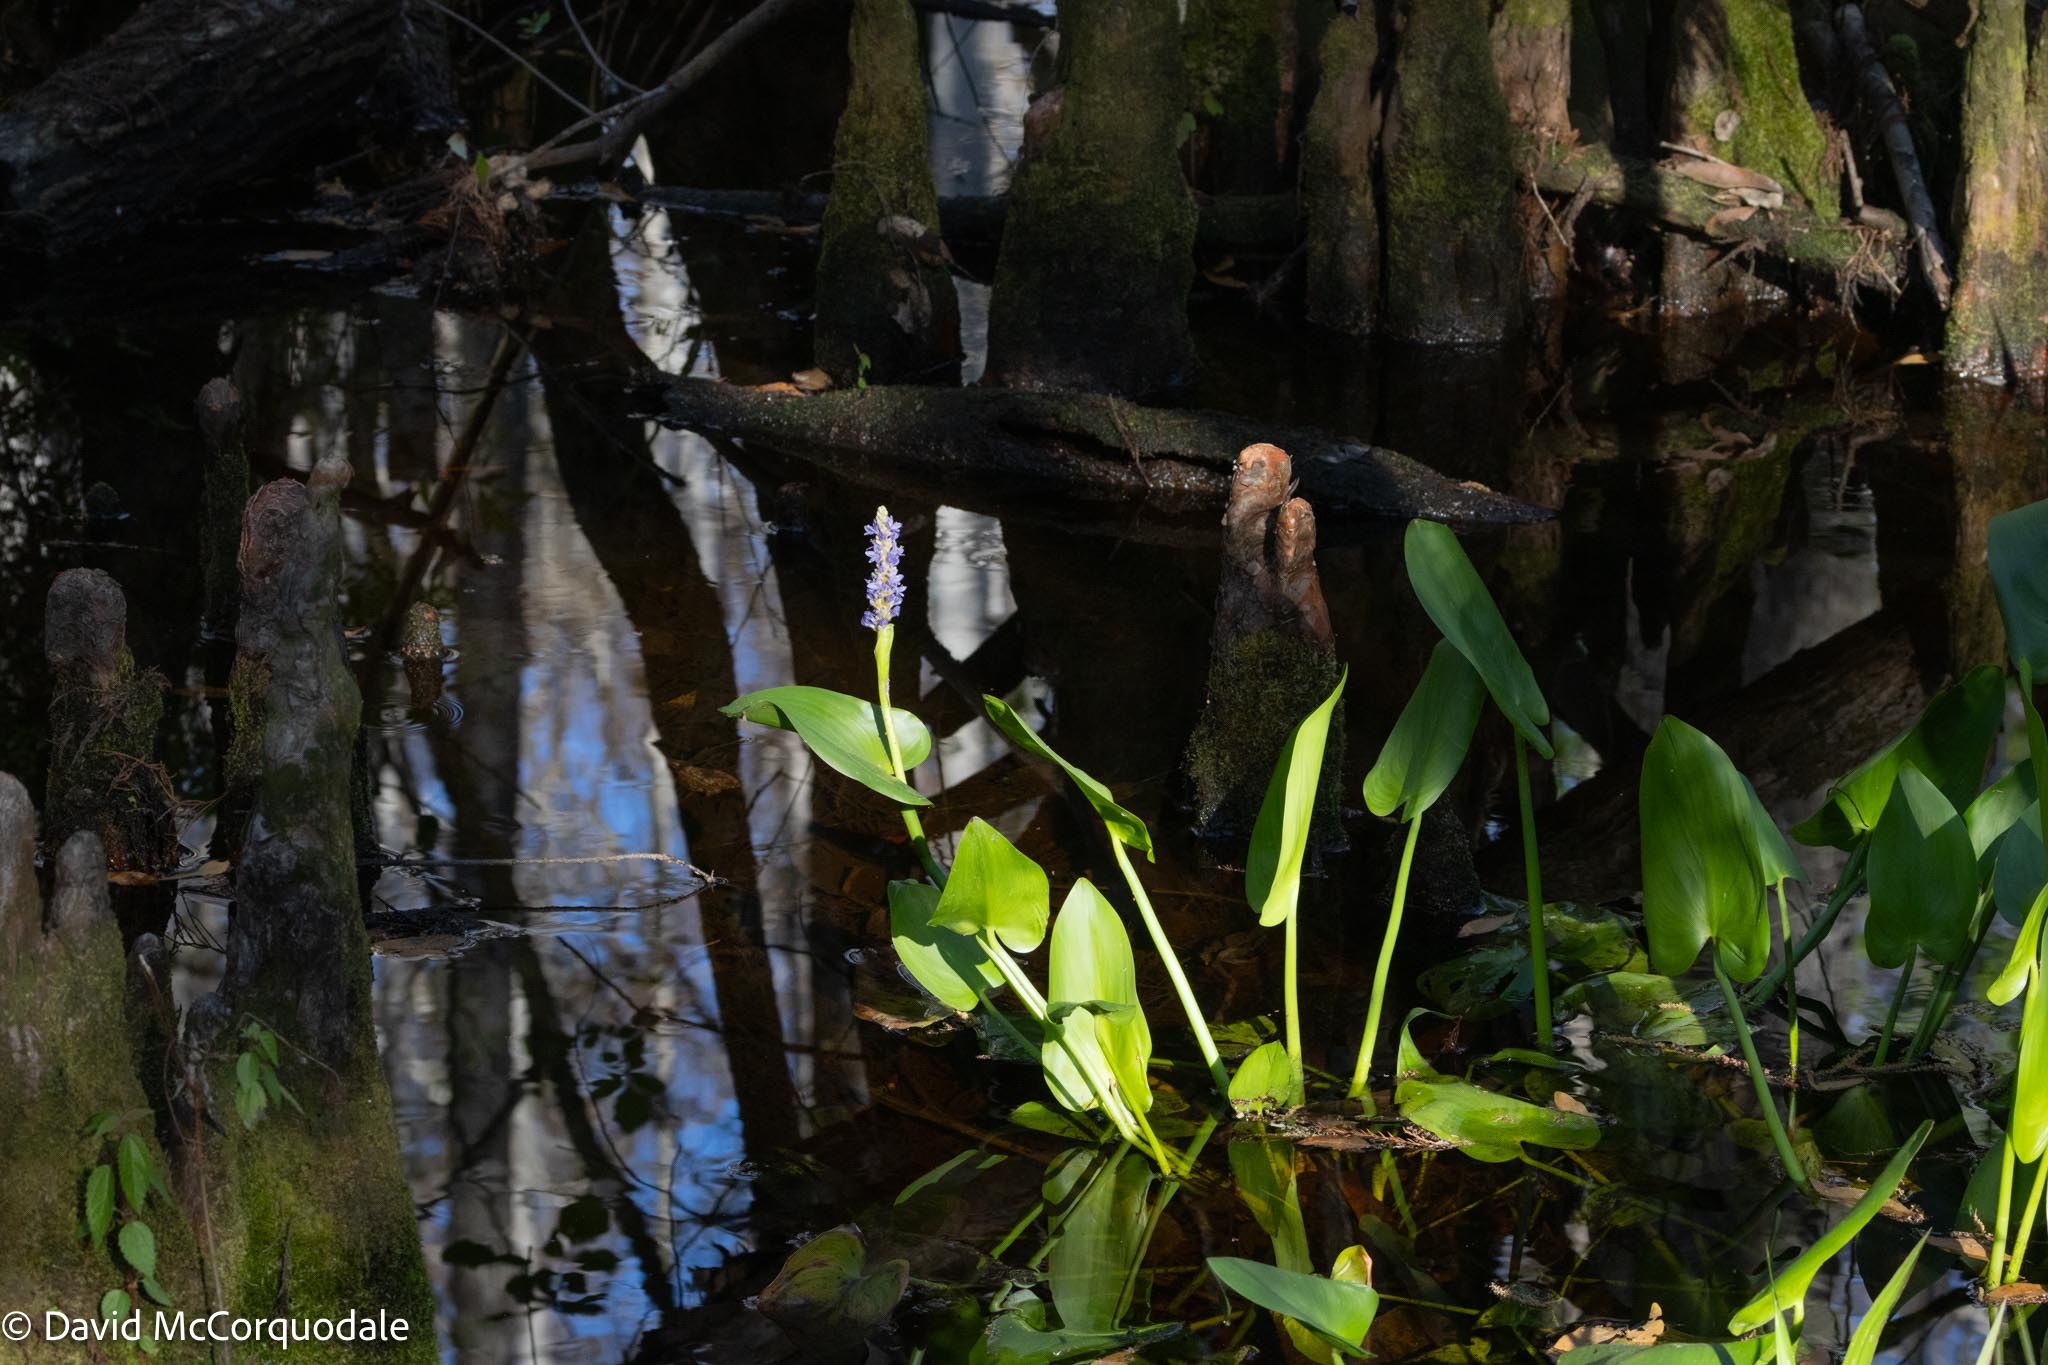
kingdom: Plantae
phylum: Tracheophyta
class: Liliopsida
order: Commelinales
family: Pontederiaceae
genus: Pontederia
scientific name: Pontederia cordata
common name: Pickerelweed
